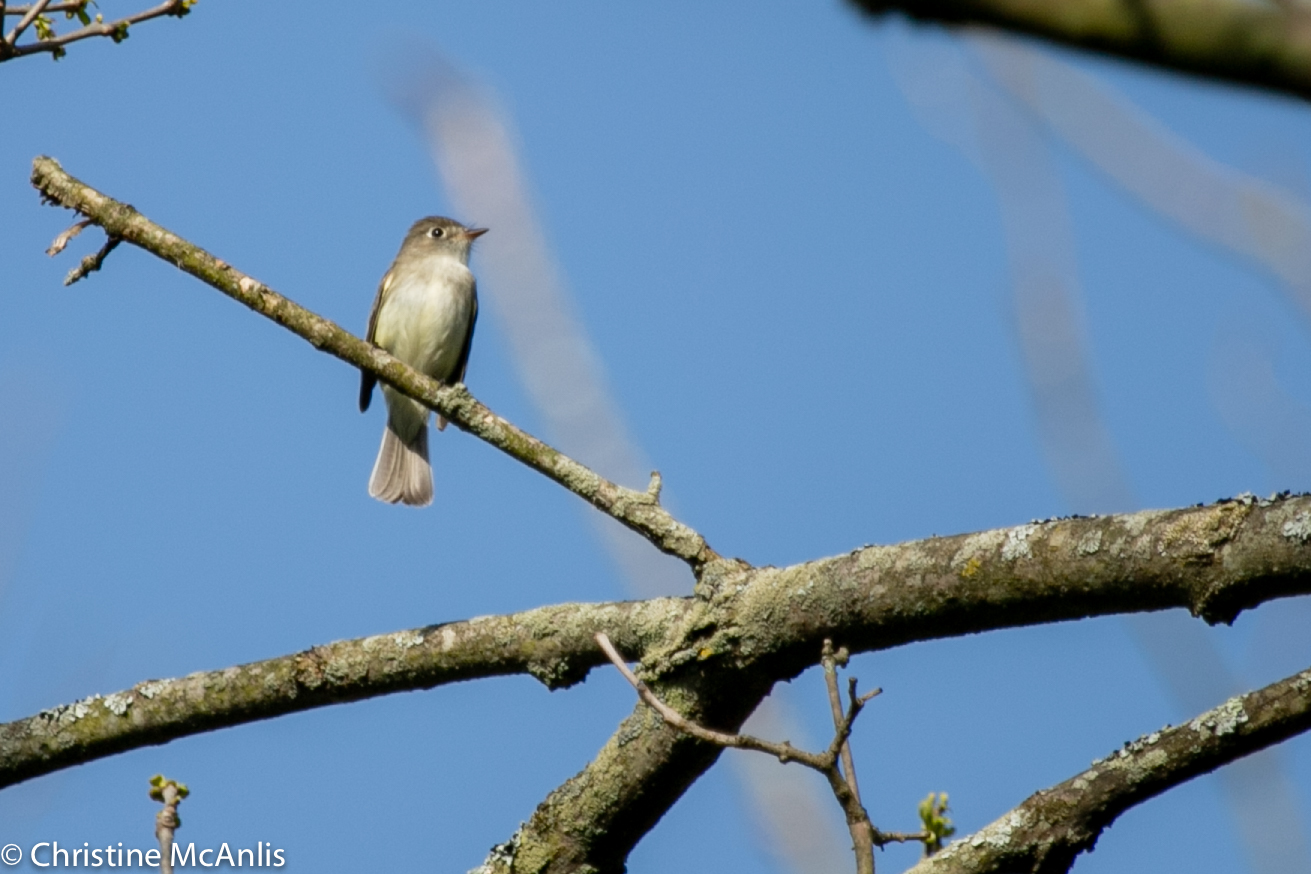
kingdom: Animalia
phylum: Chordata
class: Aves
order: Passeriformes
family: Tyrannidae
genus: Empidonax
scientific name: Empidonax minimus
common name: Least flycatcher
